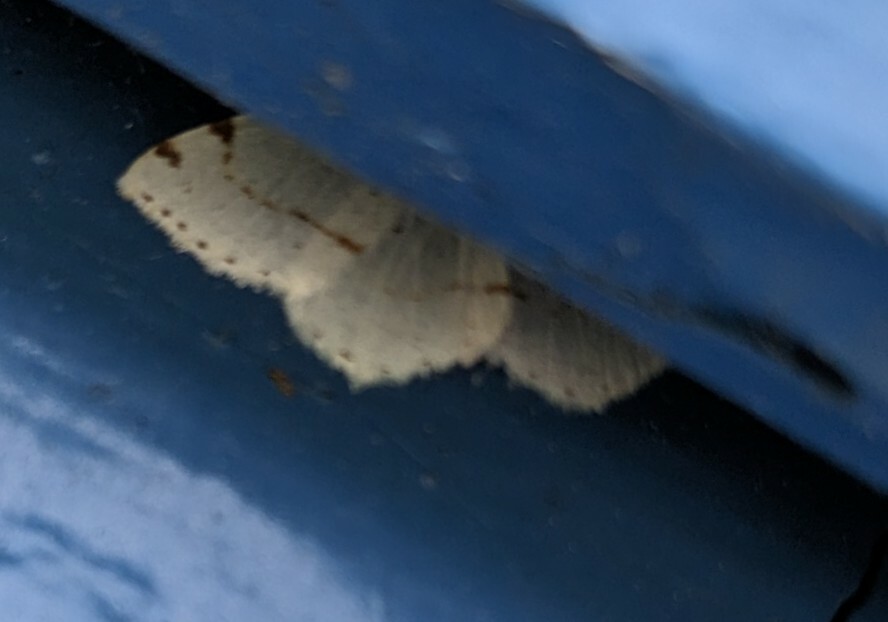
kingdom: Animalia
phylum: Arthropoda
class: Insecta
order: Lepidoptera
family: Geometridae
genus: Macaria
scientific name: Macaria pustularia
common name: Lesser maple spanworm moth
